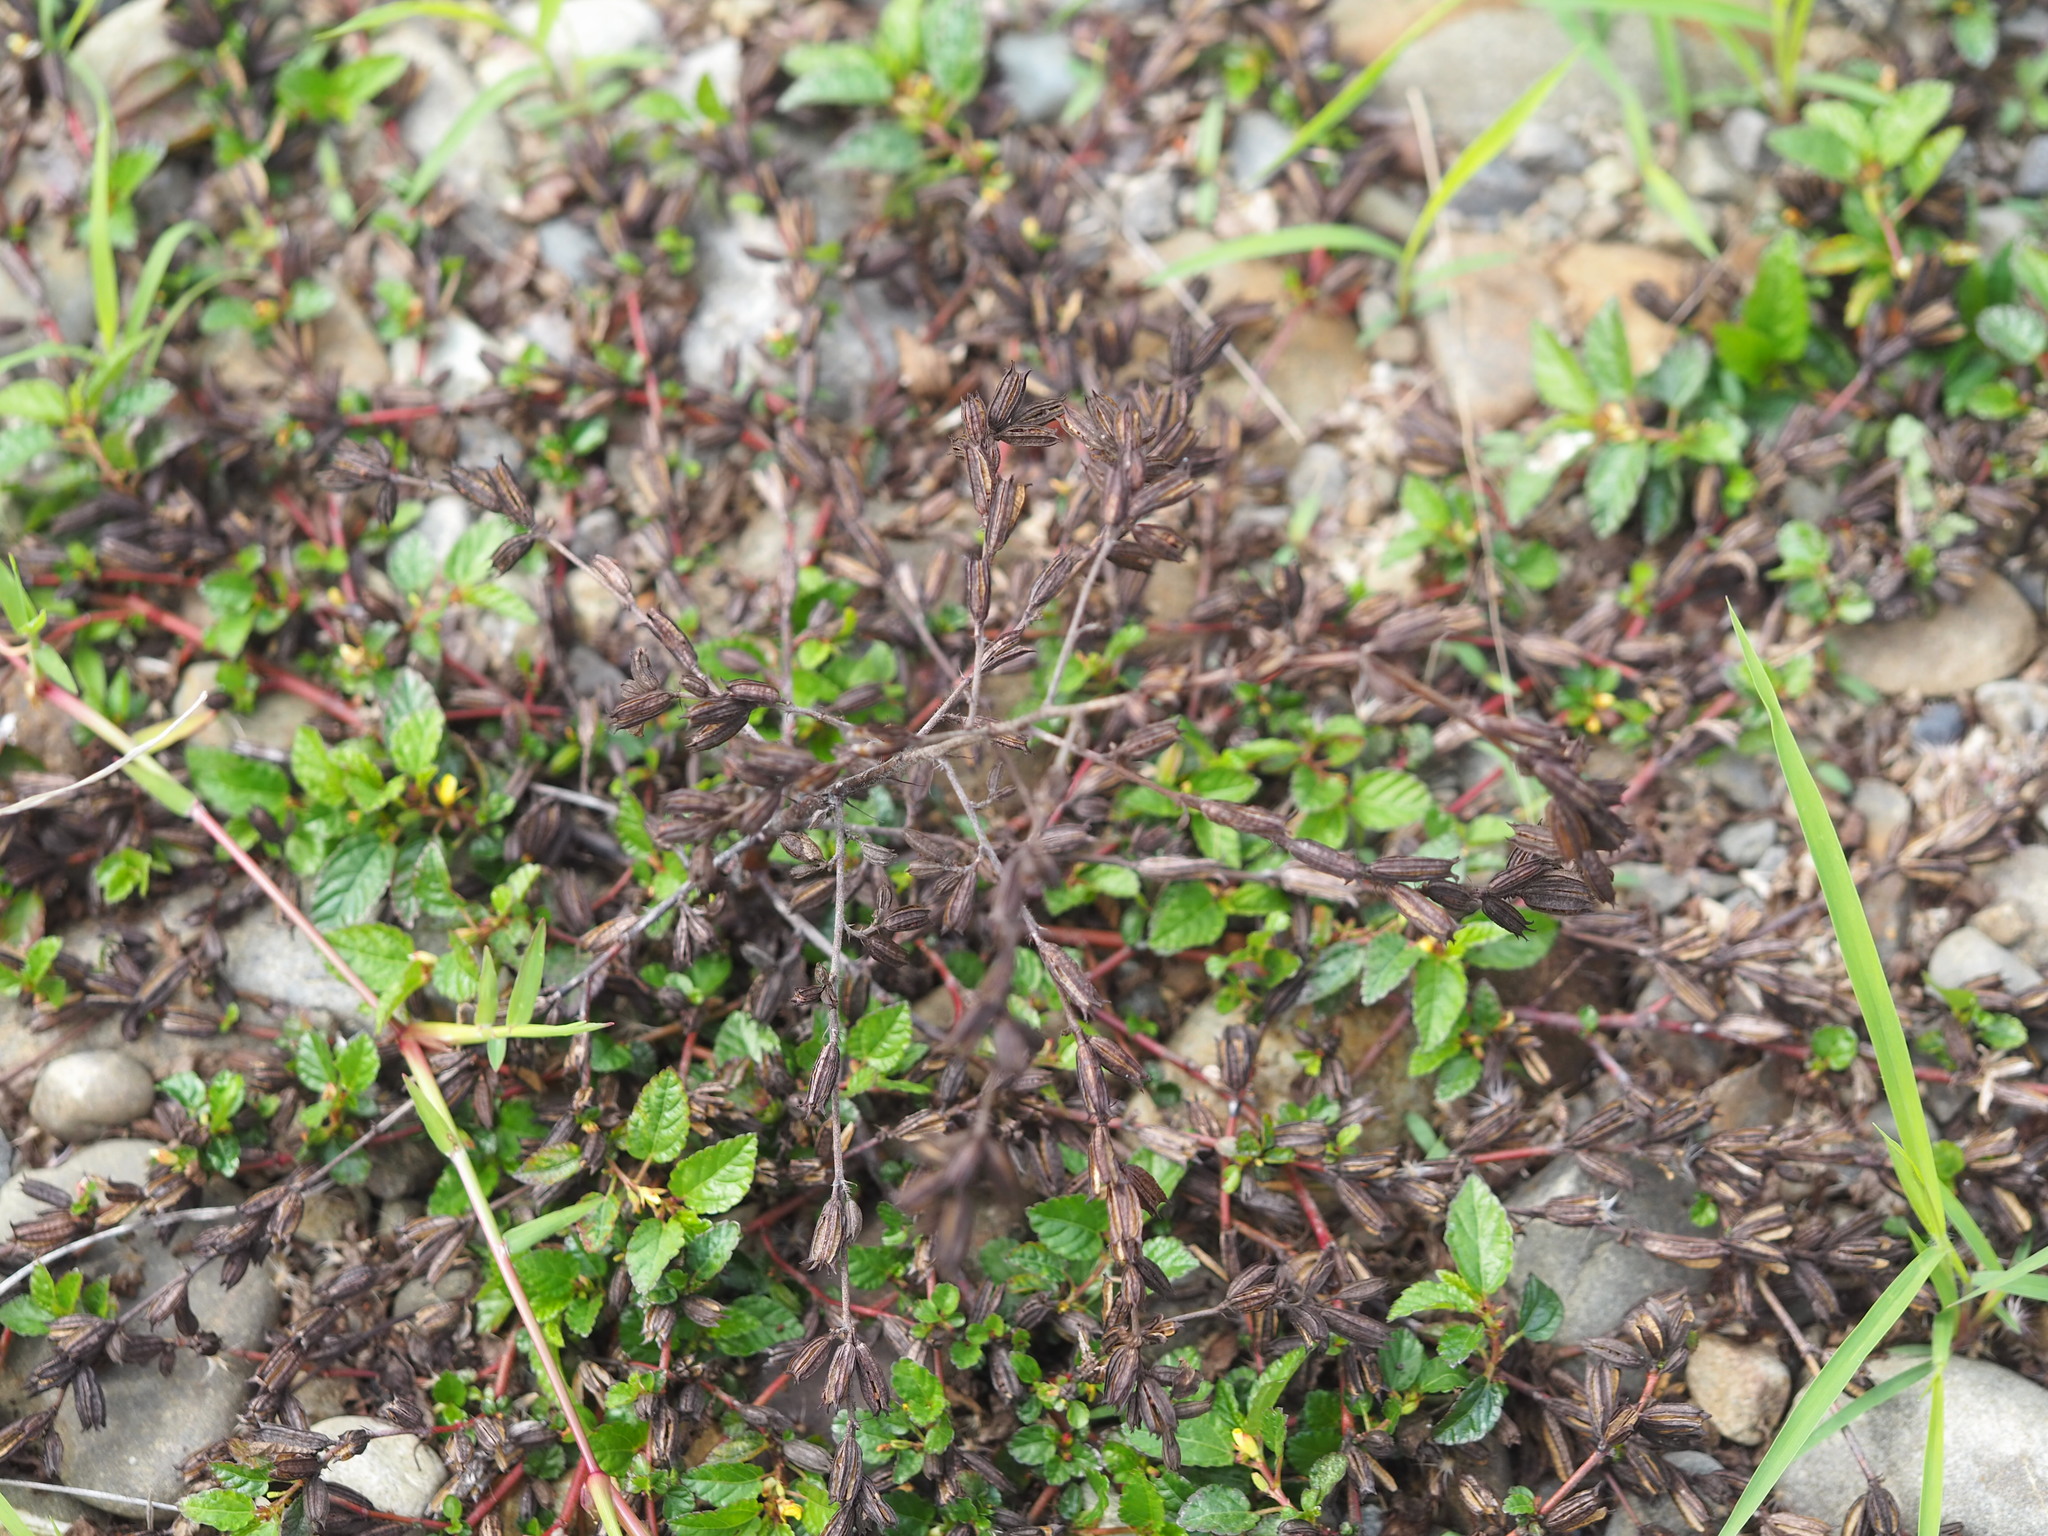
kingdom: Plantae
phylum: Tracheophyta
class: Magnoliopsida
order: Malvales
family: Malvaceae
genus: Corchorus
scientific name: Corchorus aestuans
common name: Jute
